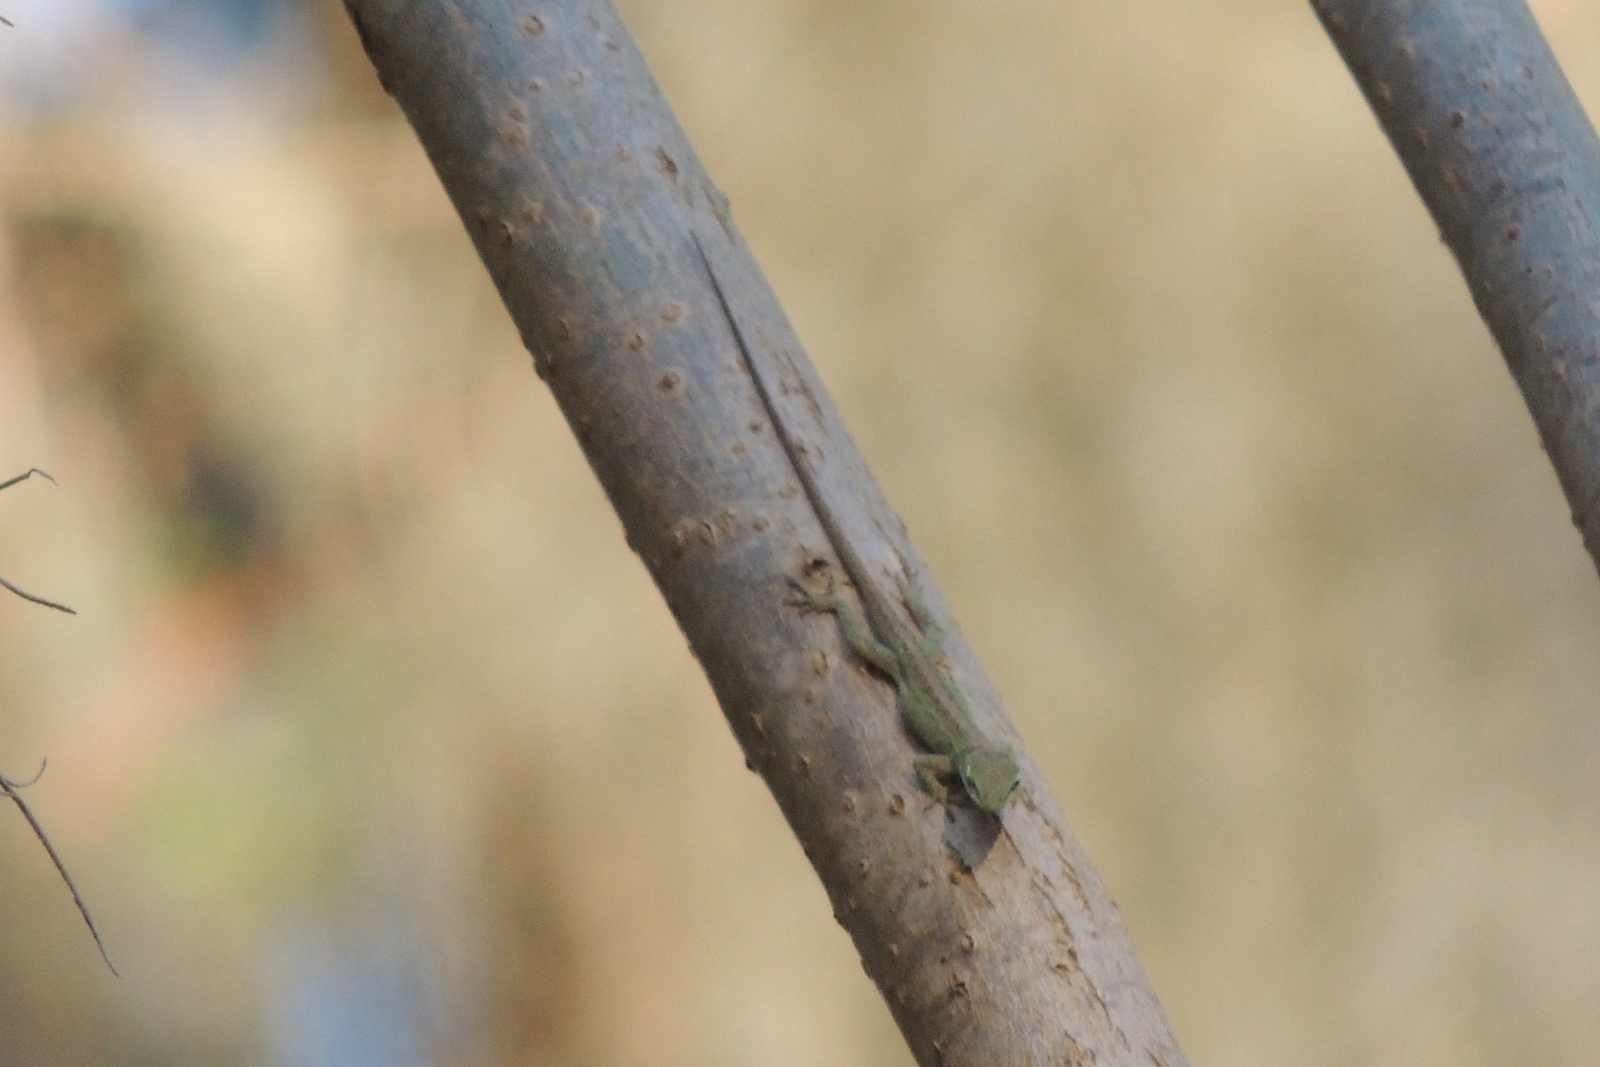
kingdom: Animalia
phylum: Chordata
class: Squamata
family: Dactyloidae
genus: Anolis
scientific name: Anolis carolinensis
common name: Green anole
